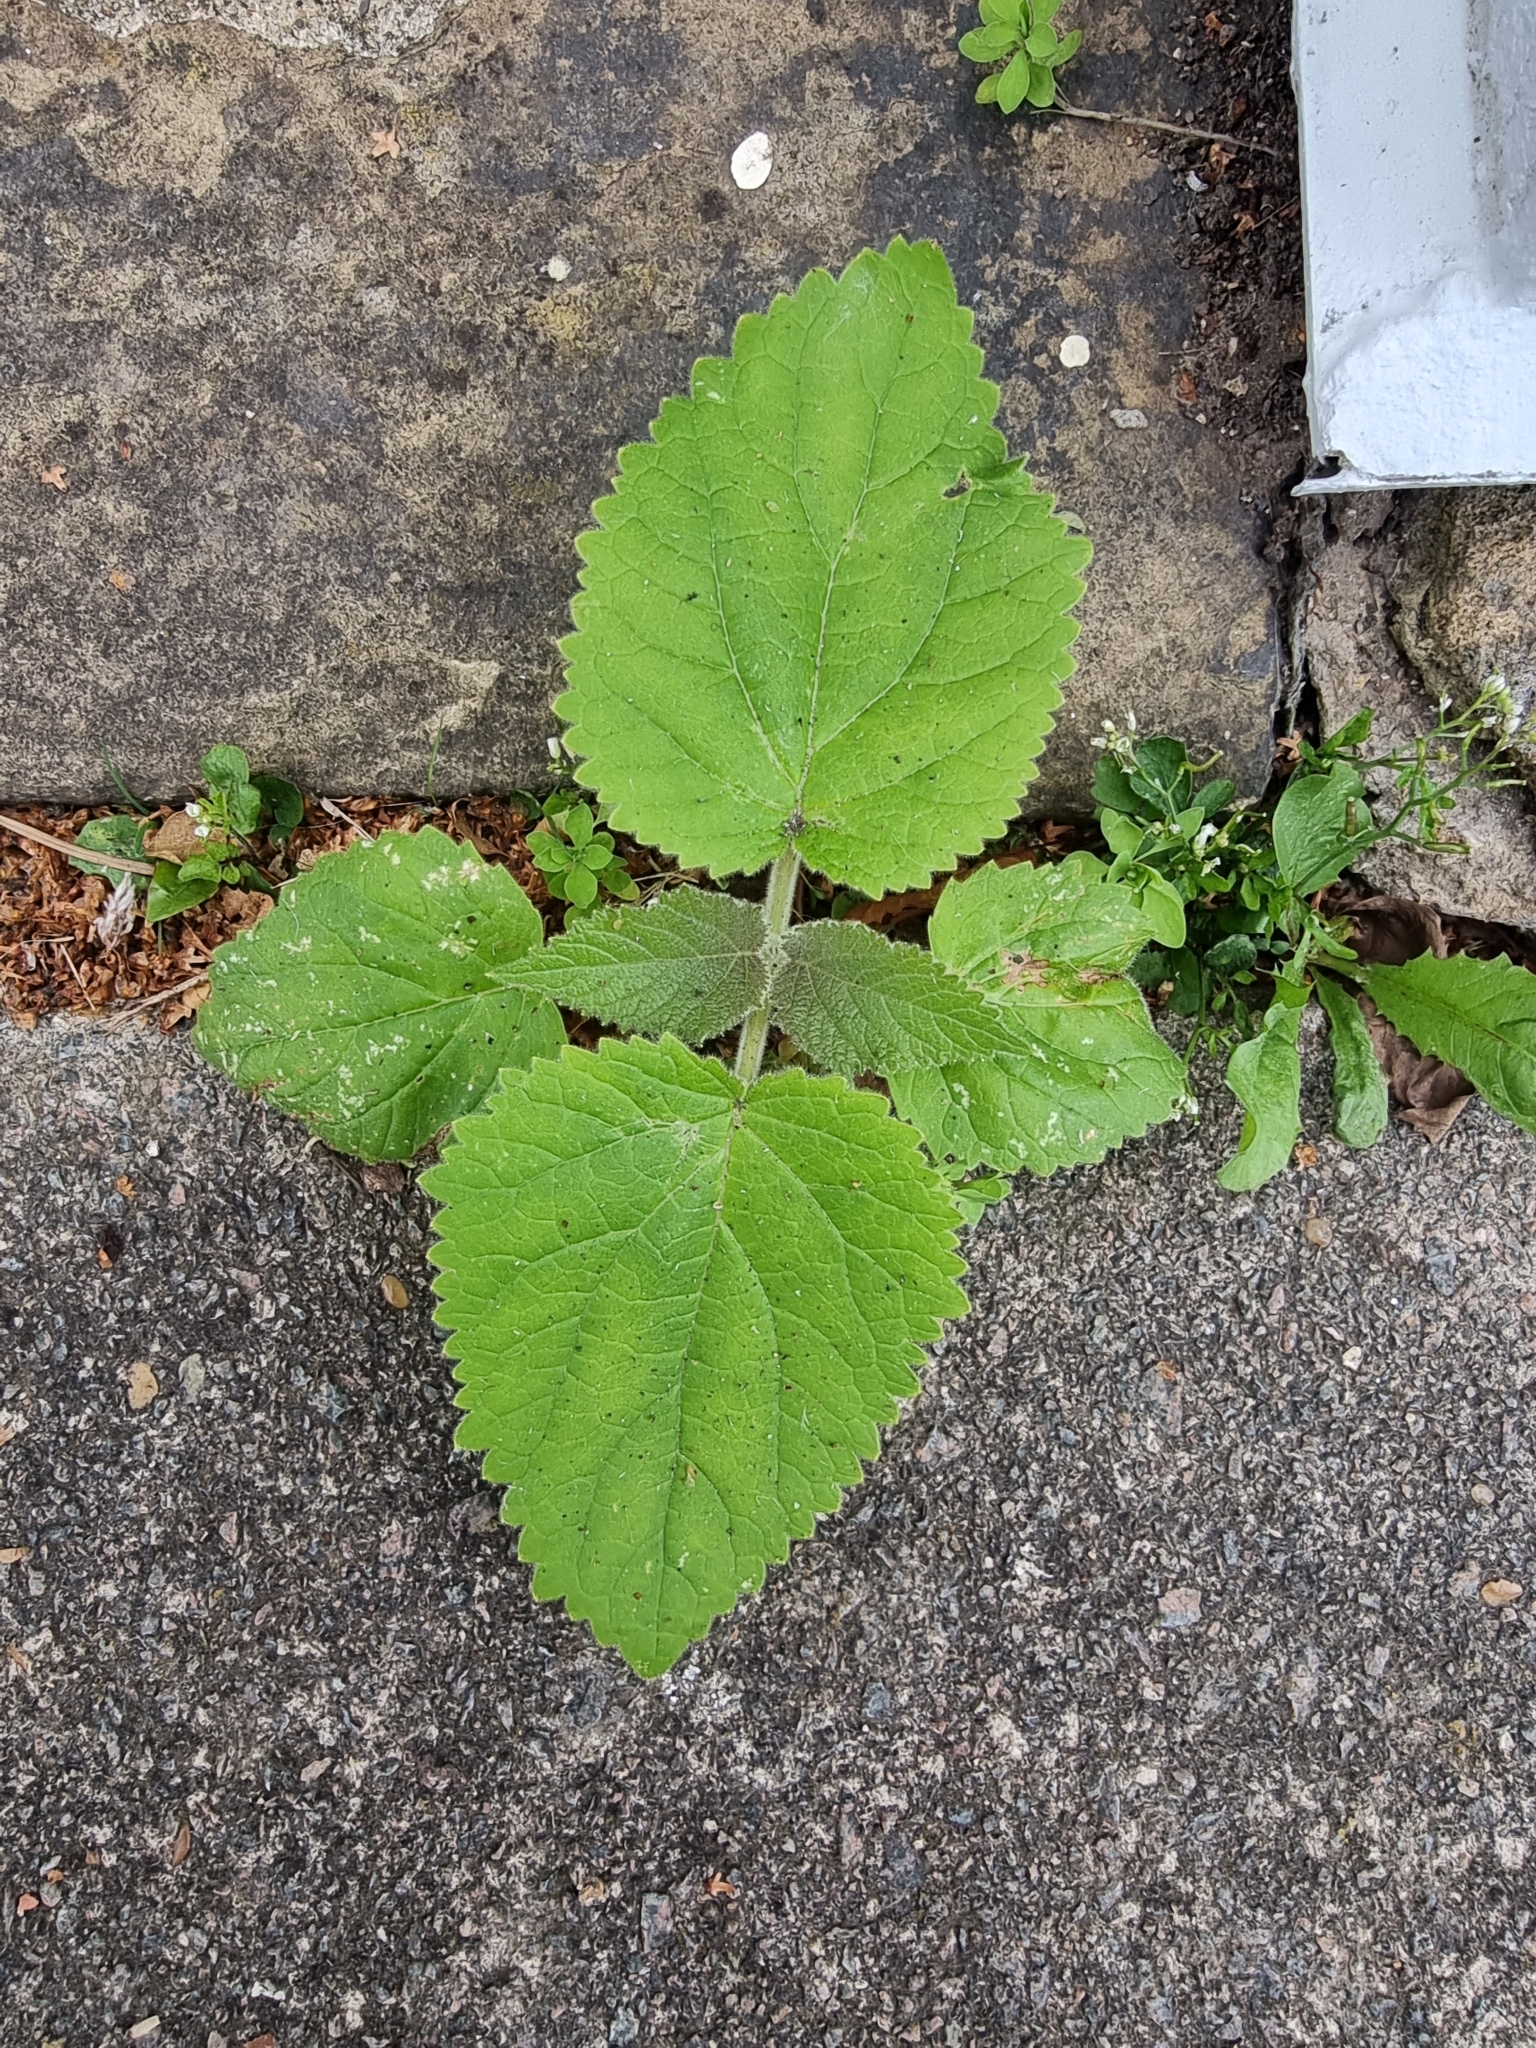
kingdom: Plantae
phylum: Tracheophyta
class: Magnoliopsida
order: Lamiales
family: Paulowniaceae
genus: Paulownia
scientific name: Paulownia tomentosa
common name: Foxglove-tree
